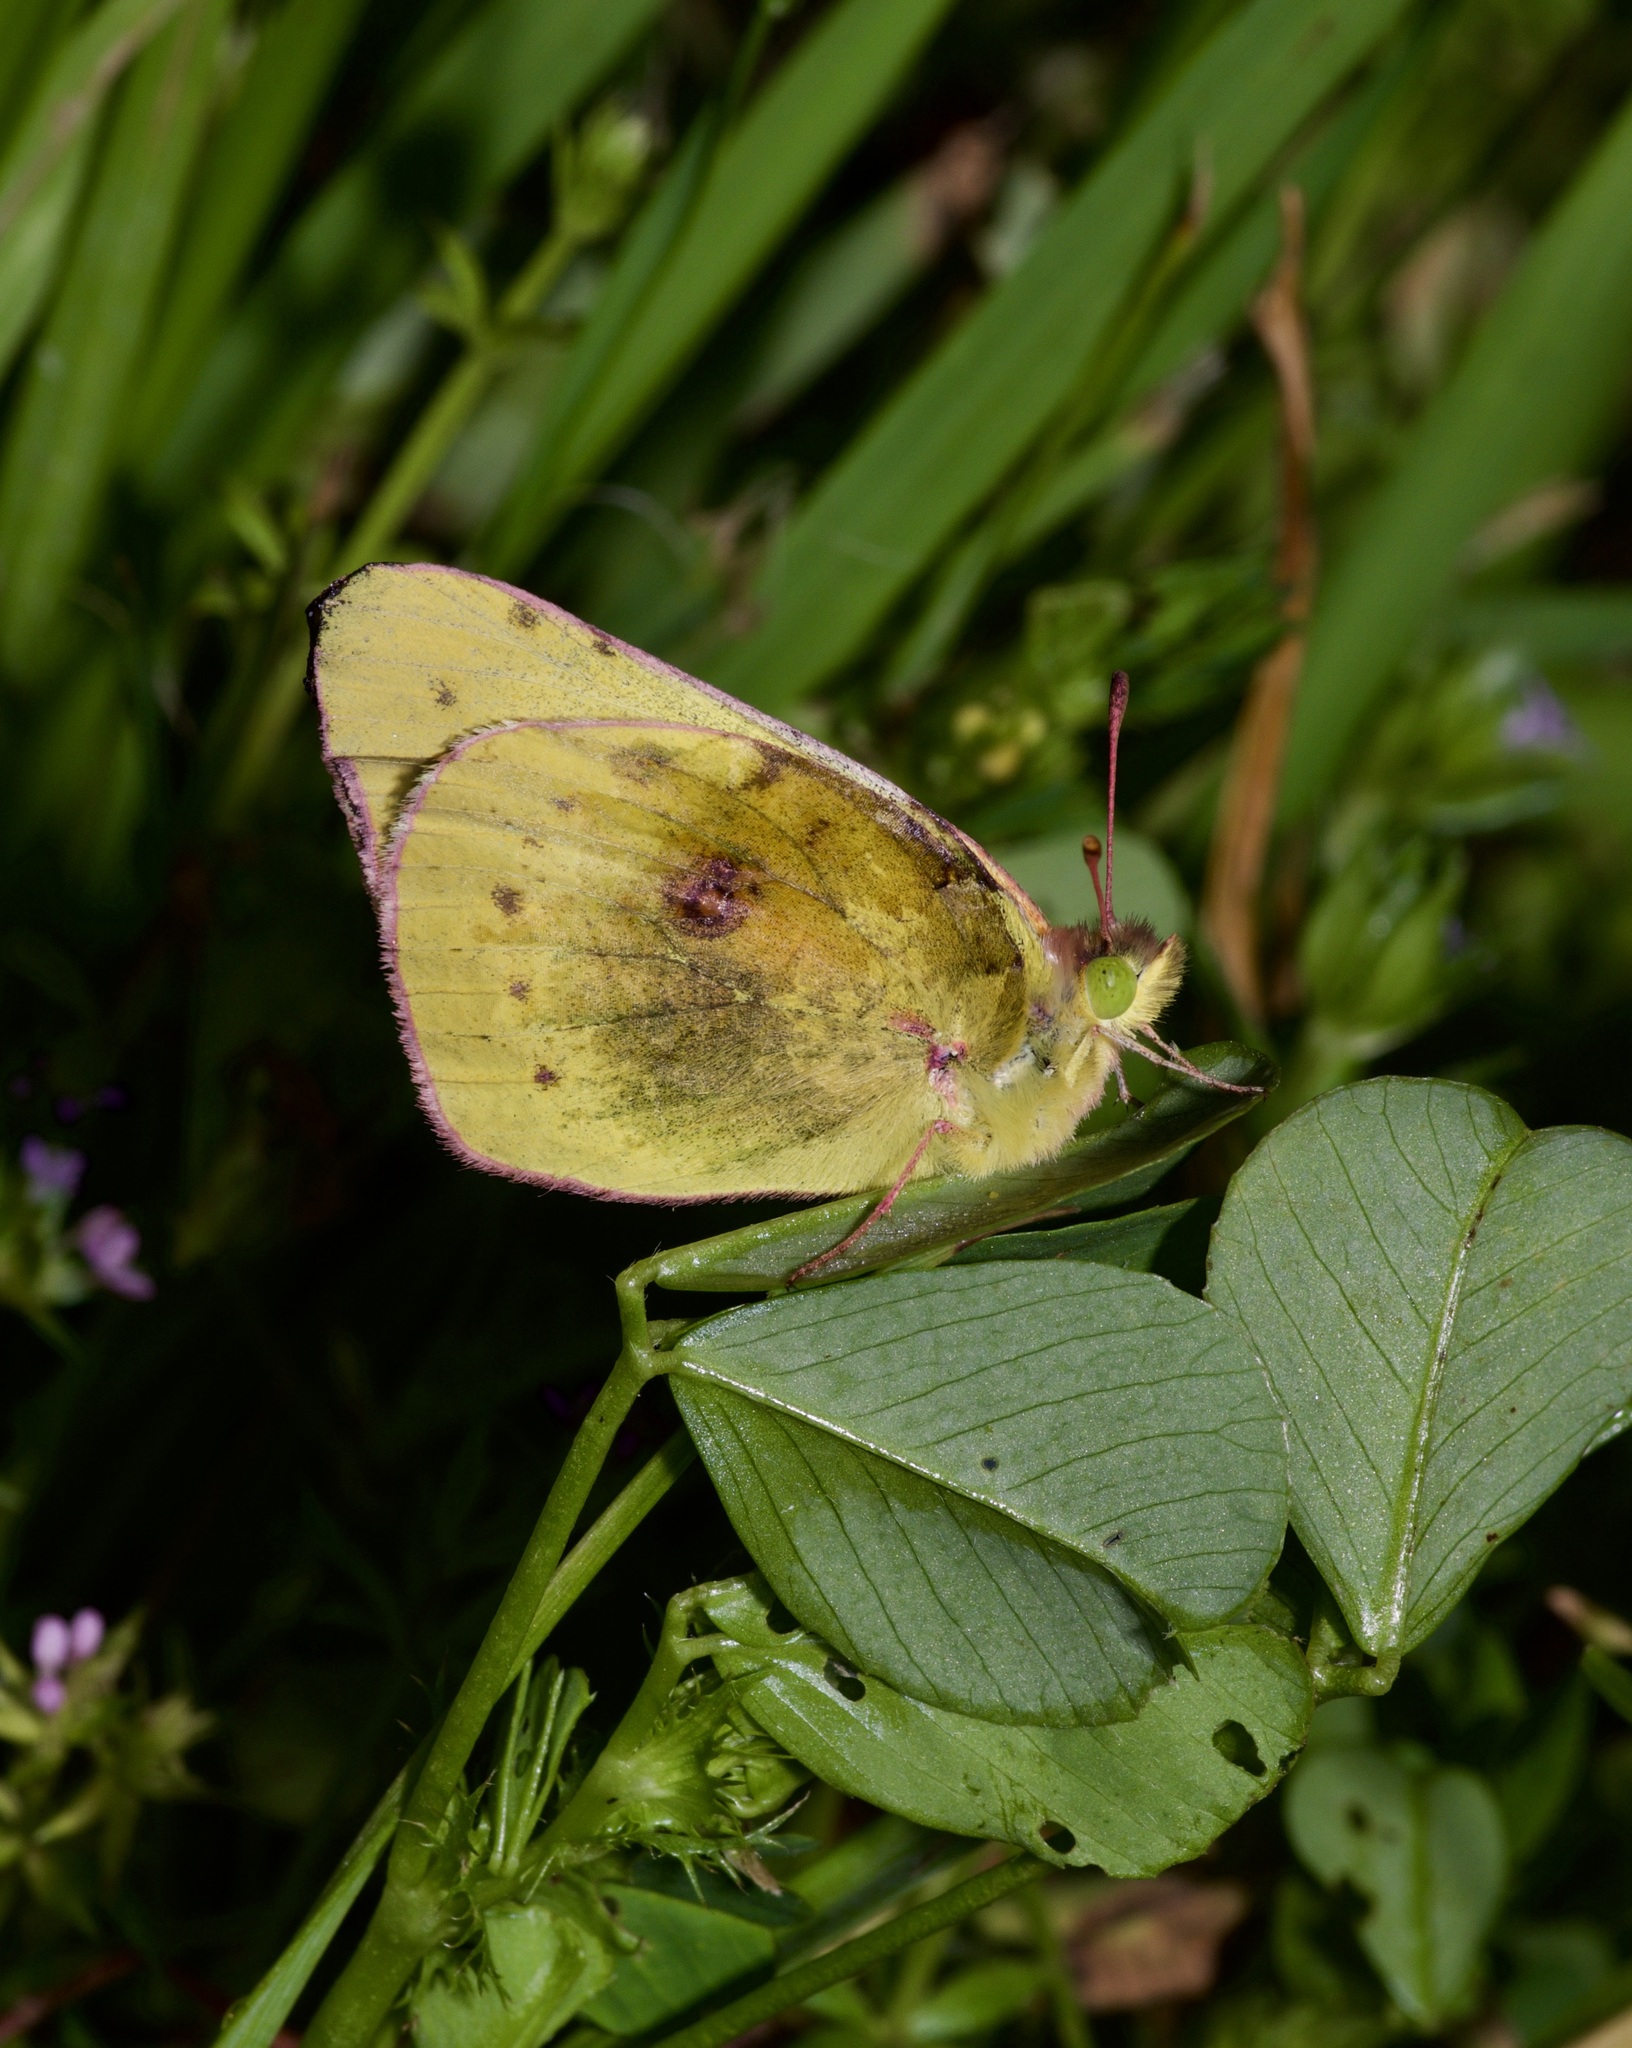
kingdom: Animalia
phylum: Arthropoda
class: Insecta
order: Lepidoptera
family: Pieridae
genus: Colias
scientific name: Colias eurytheme
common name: Alfalfa butterfly
